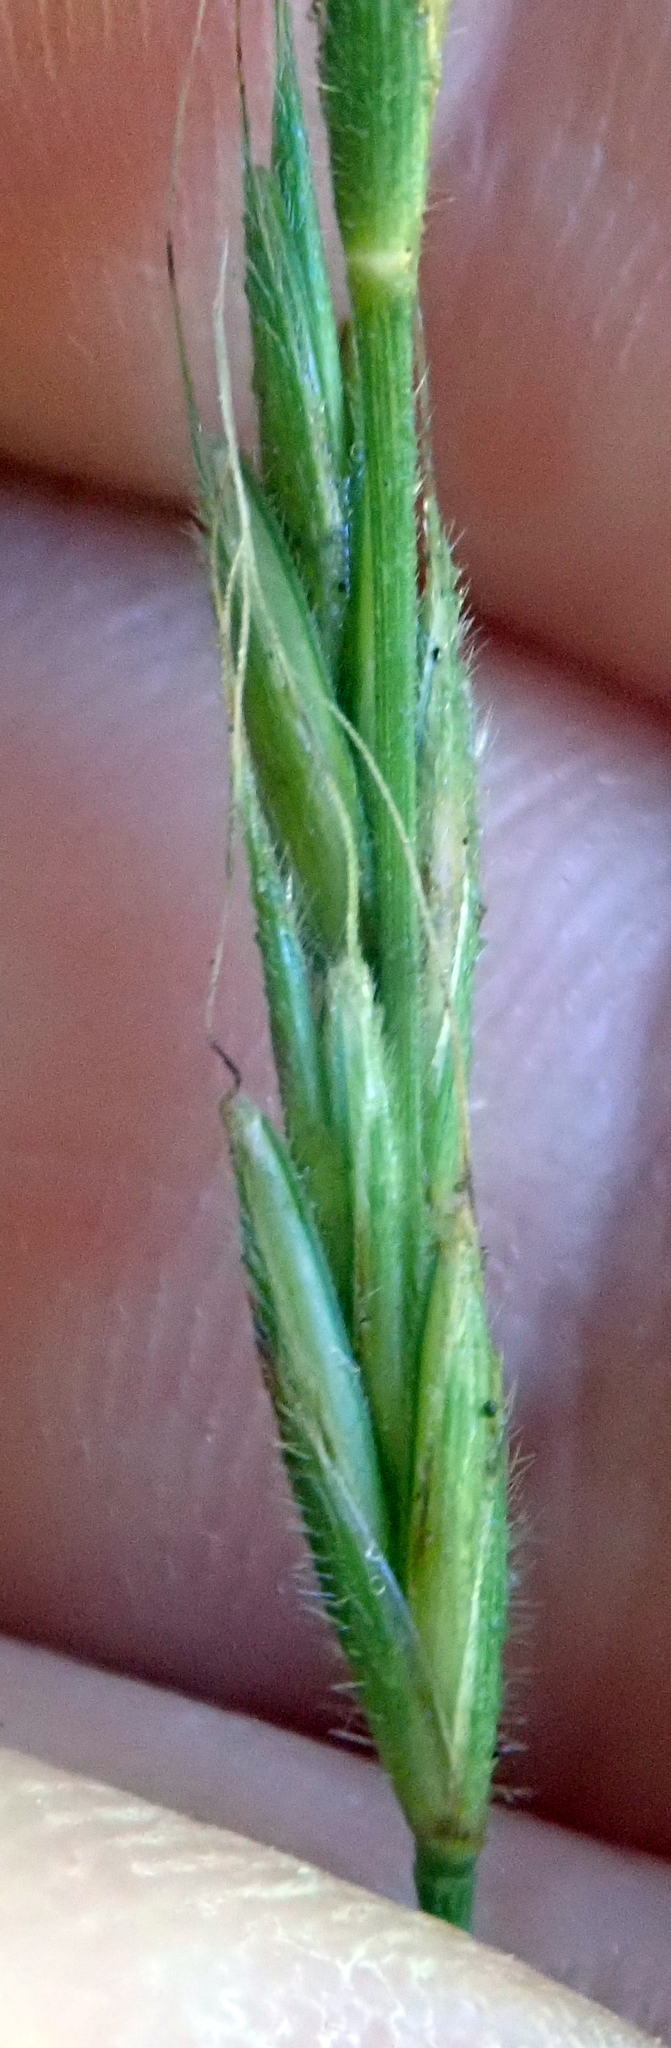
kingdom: Plantae
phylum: Tracheophyta
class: Liliopsida
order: Poales
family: Poaceae
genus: Brachypodium
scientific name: Brachypodium sylvaticum
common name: False-brome
